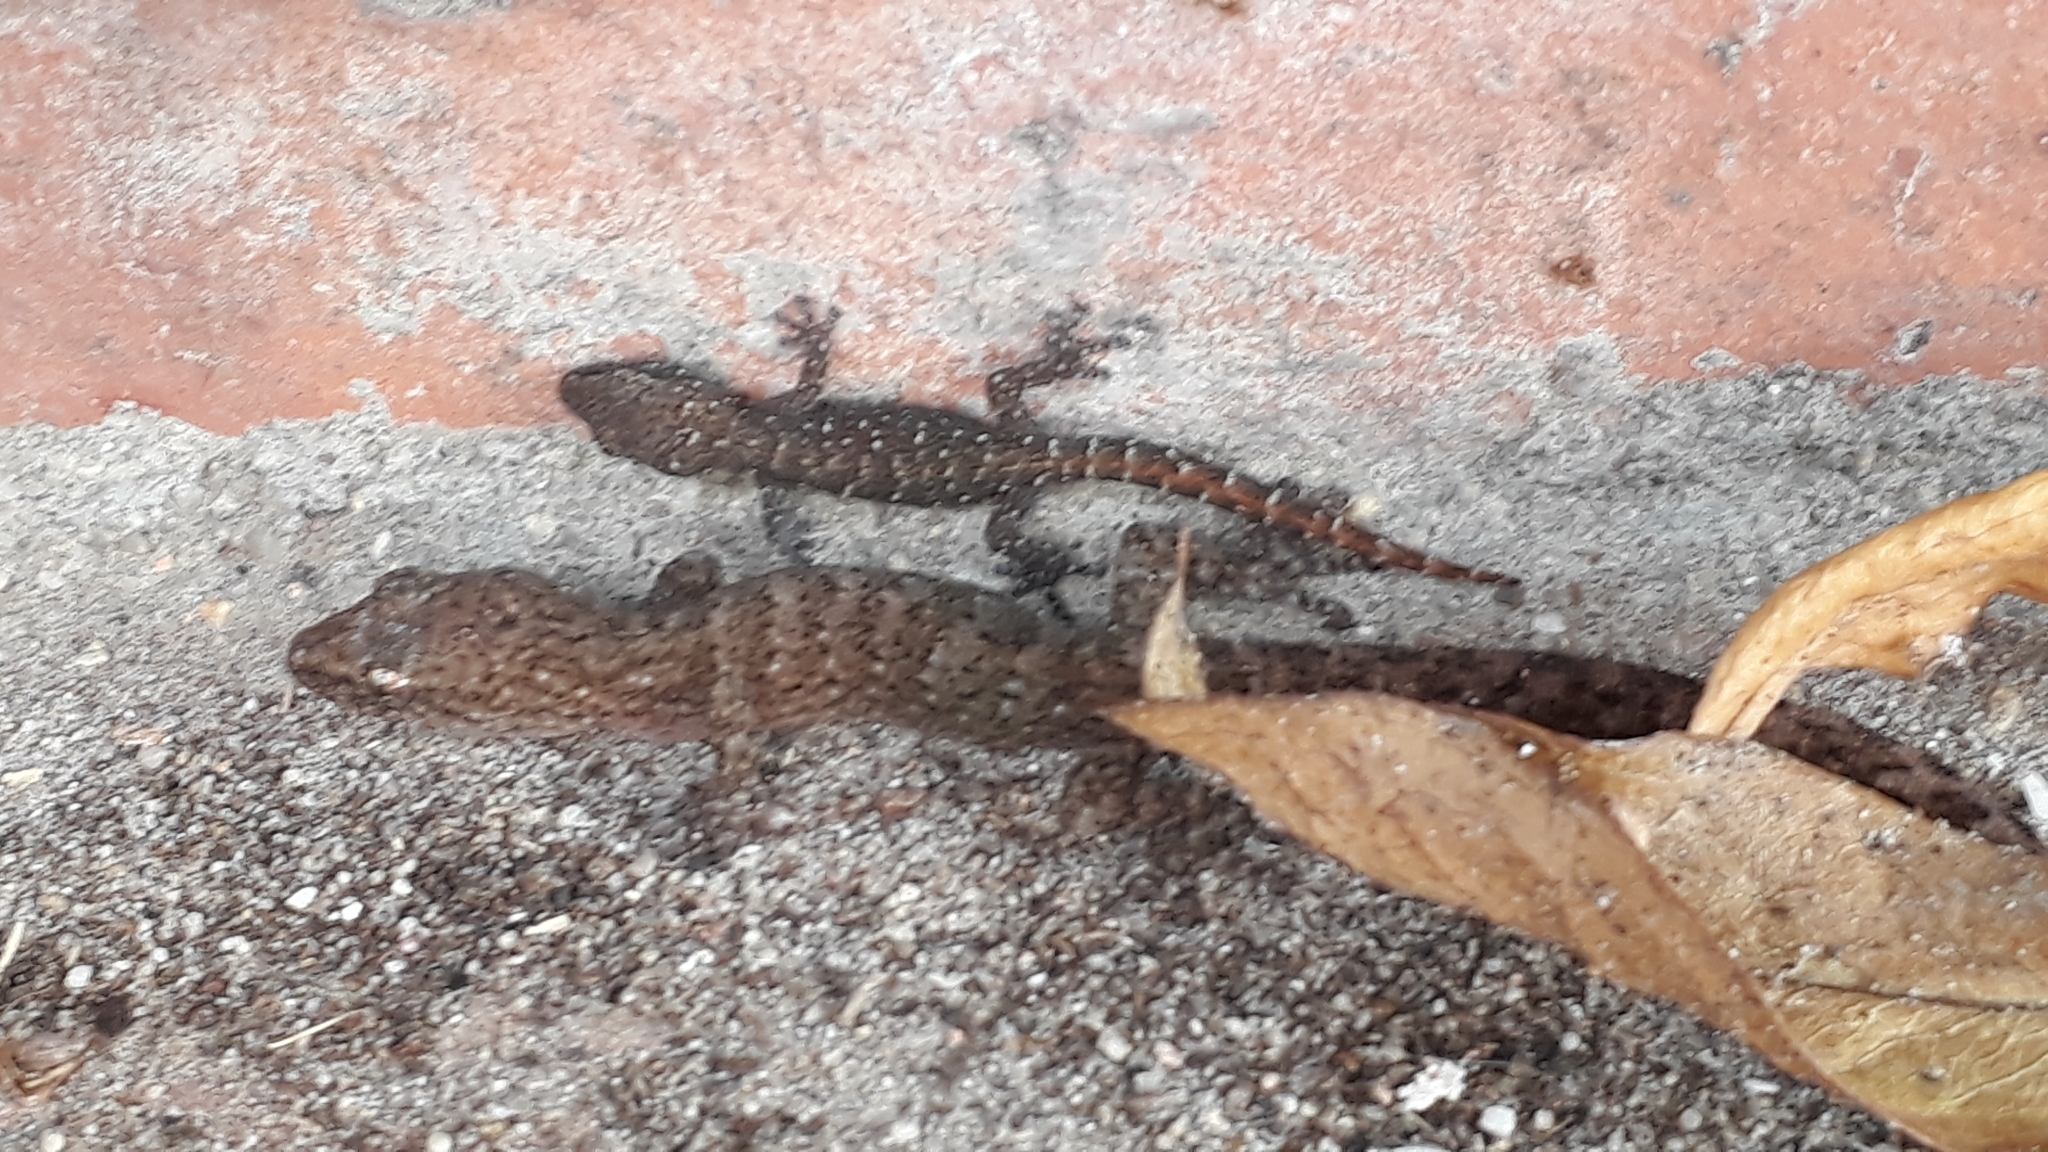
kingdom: Animalia
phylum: Chordata
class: Squamata
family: Gekkonidae
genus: Afrogecko
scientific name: Afrogecko porphyreus
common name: Marbled leaf-toed gecko
